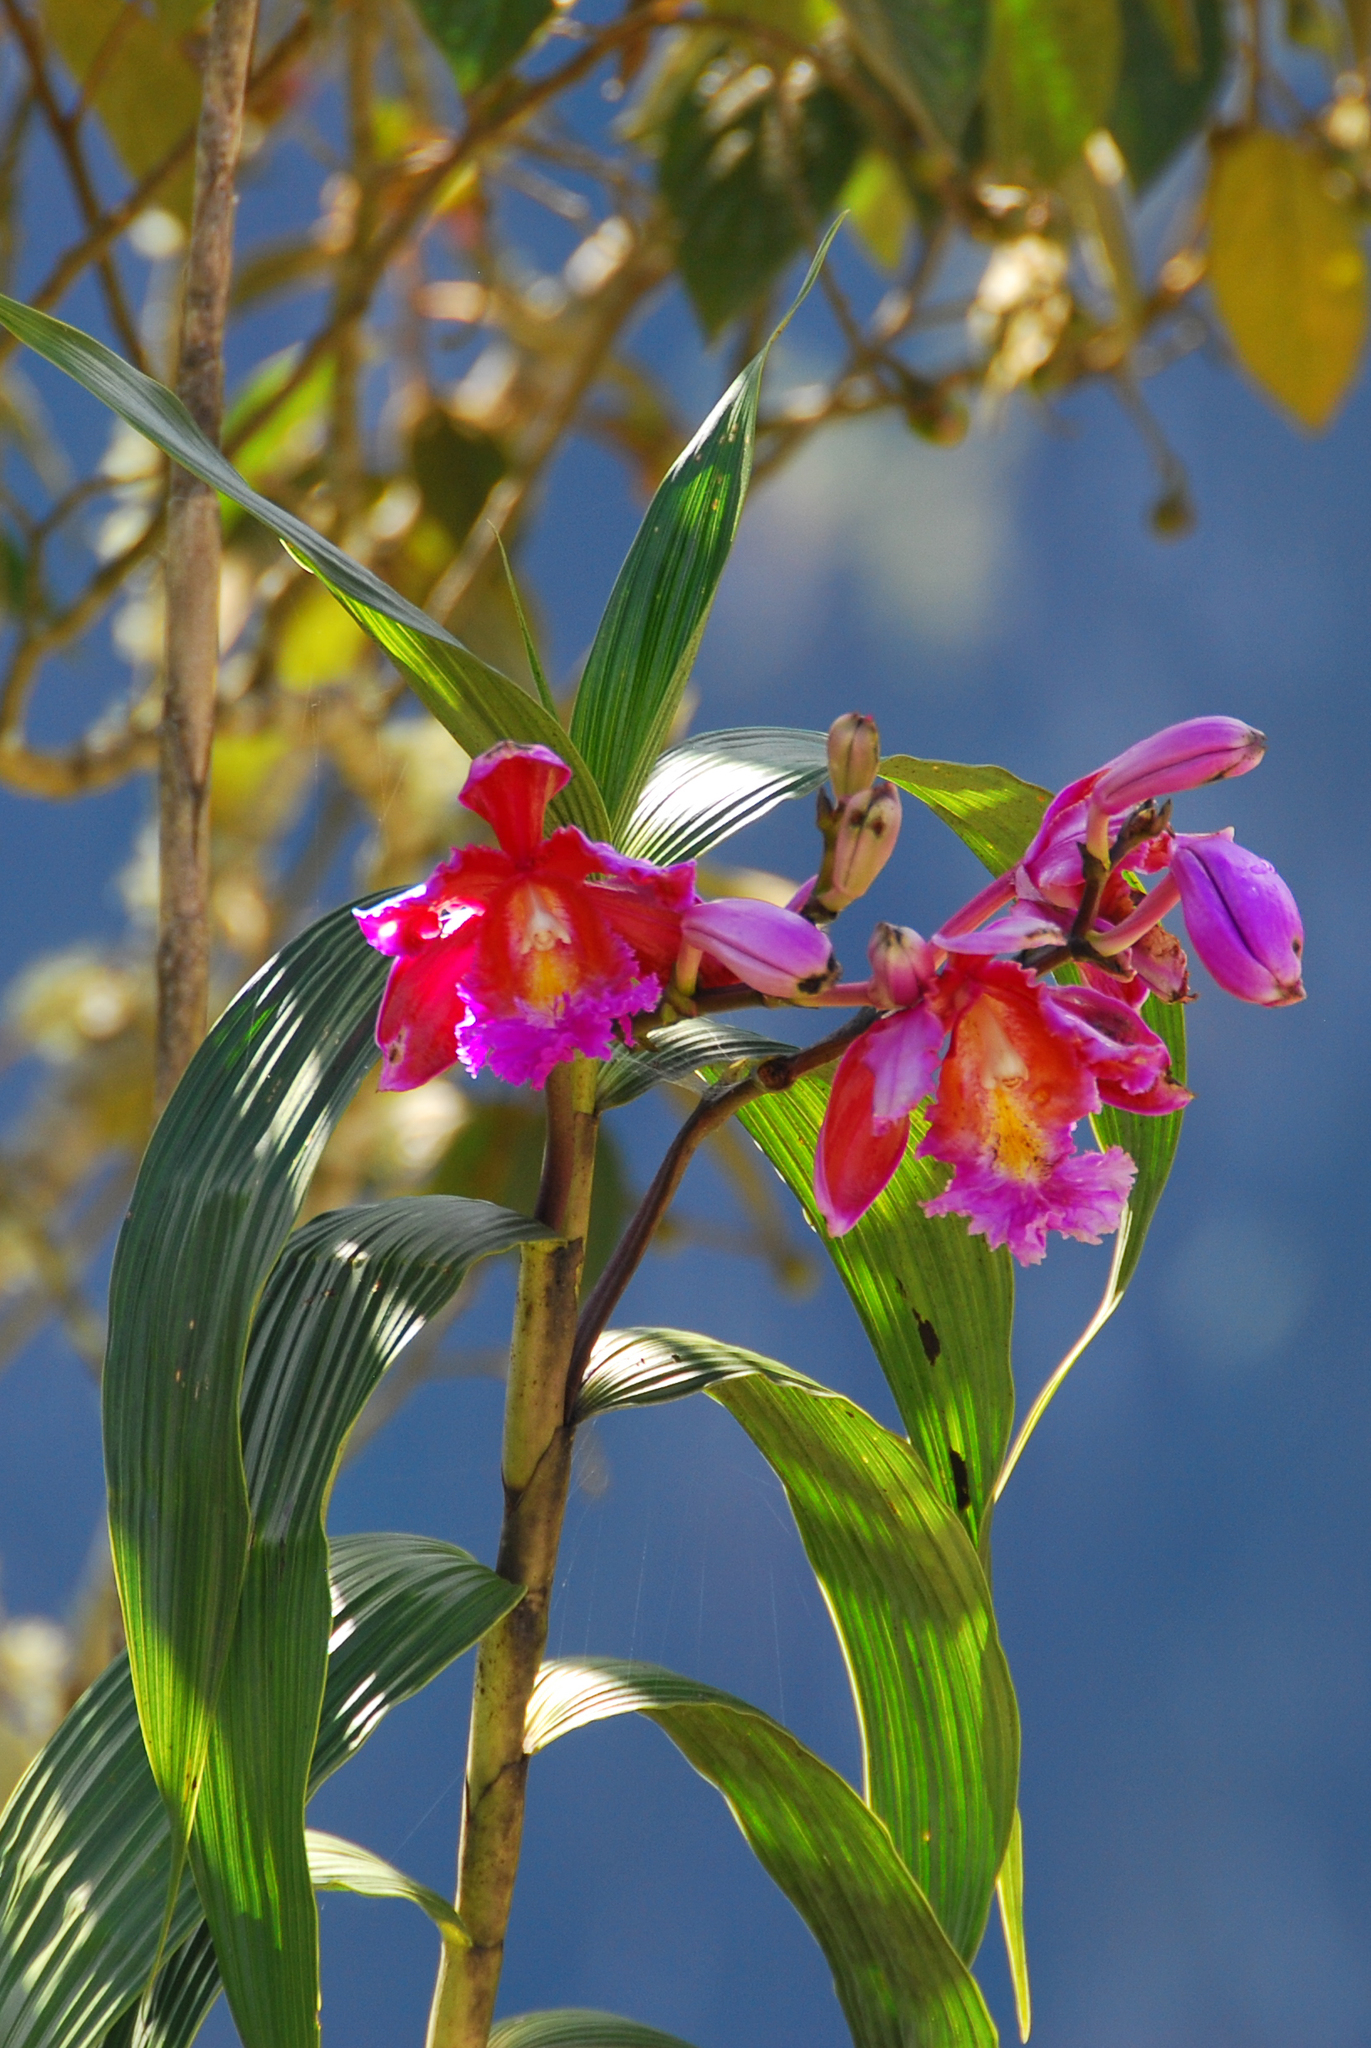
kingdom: Plantae
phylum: Tracheophyta
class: Liliopsida
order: Asparagales
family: Orchidaceae
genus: Sobralia
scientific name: Sobralia dichotoma
